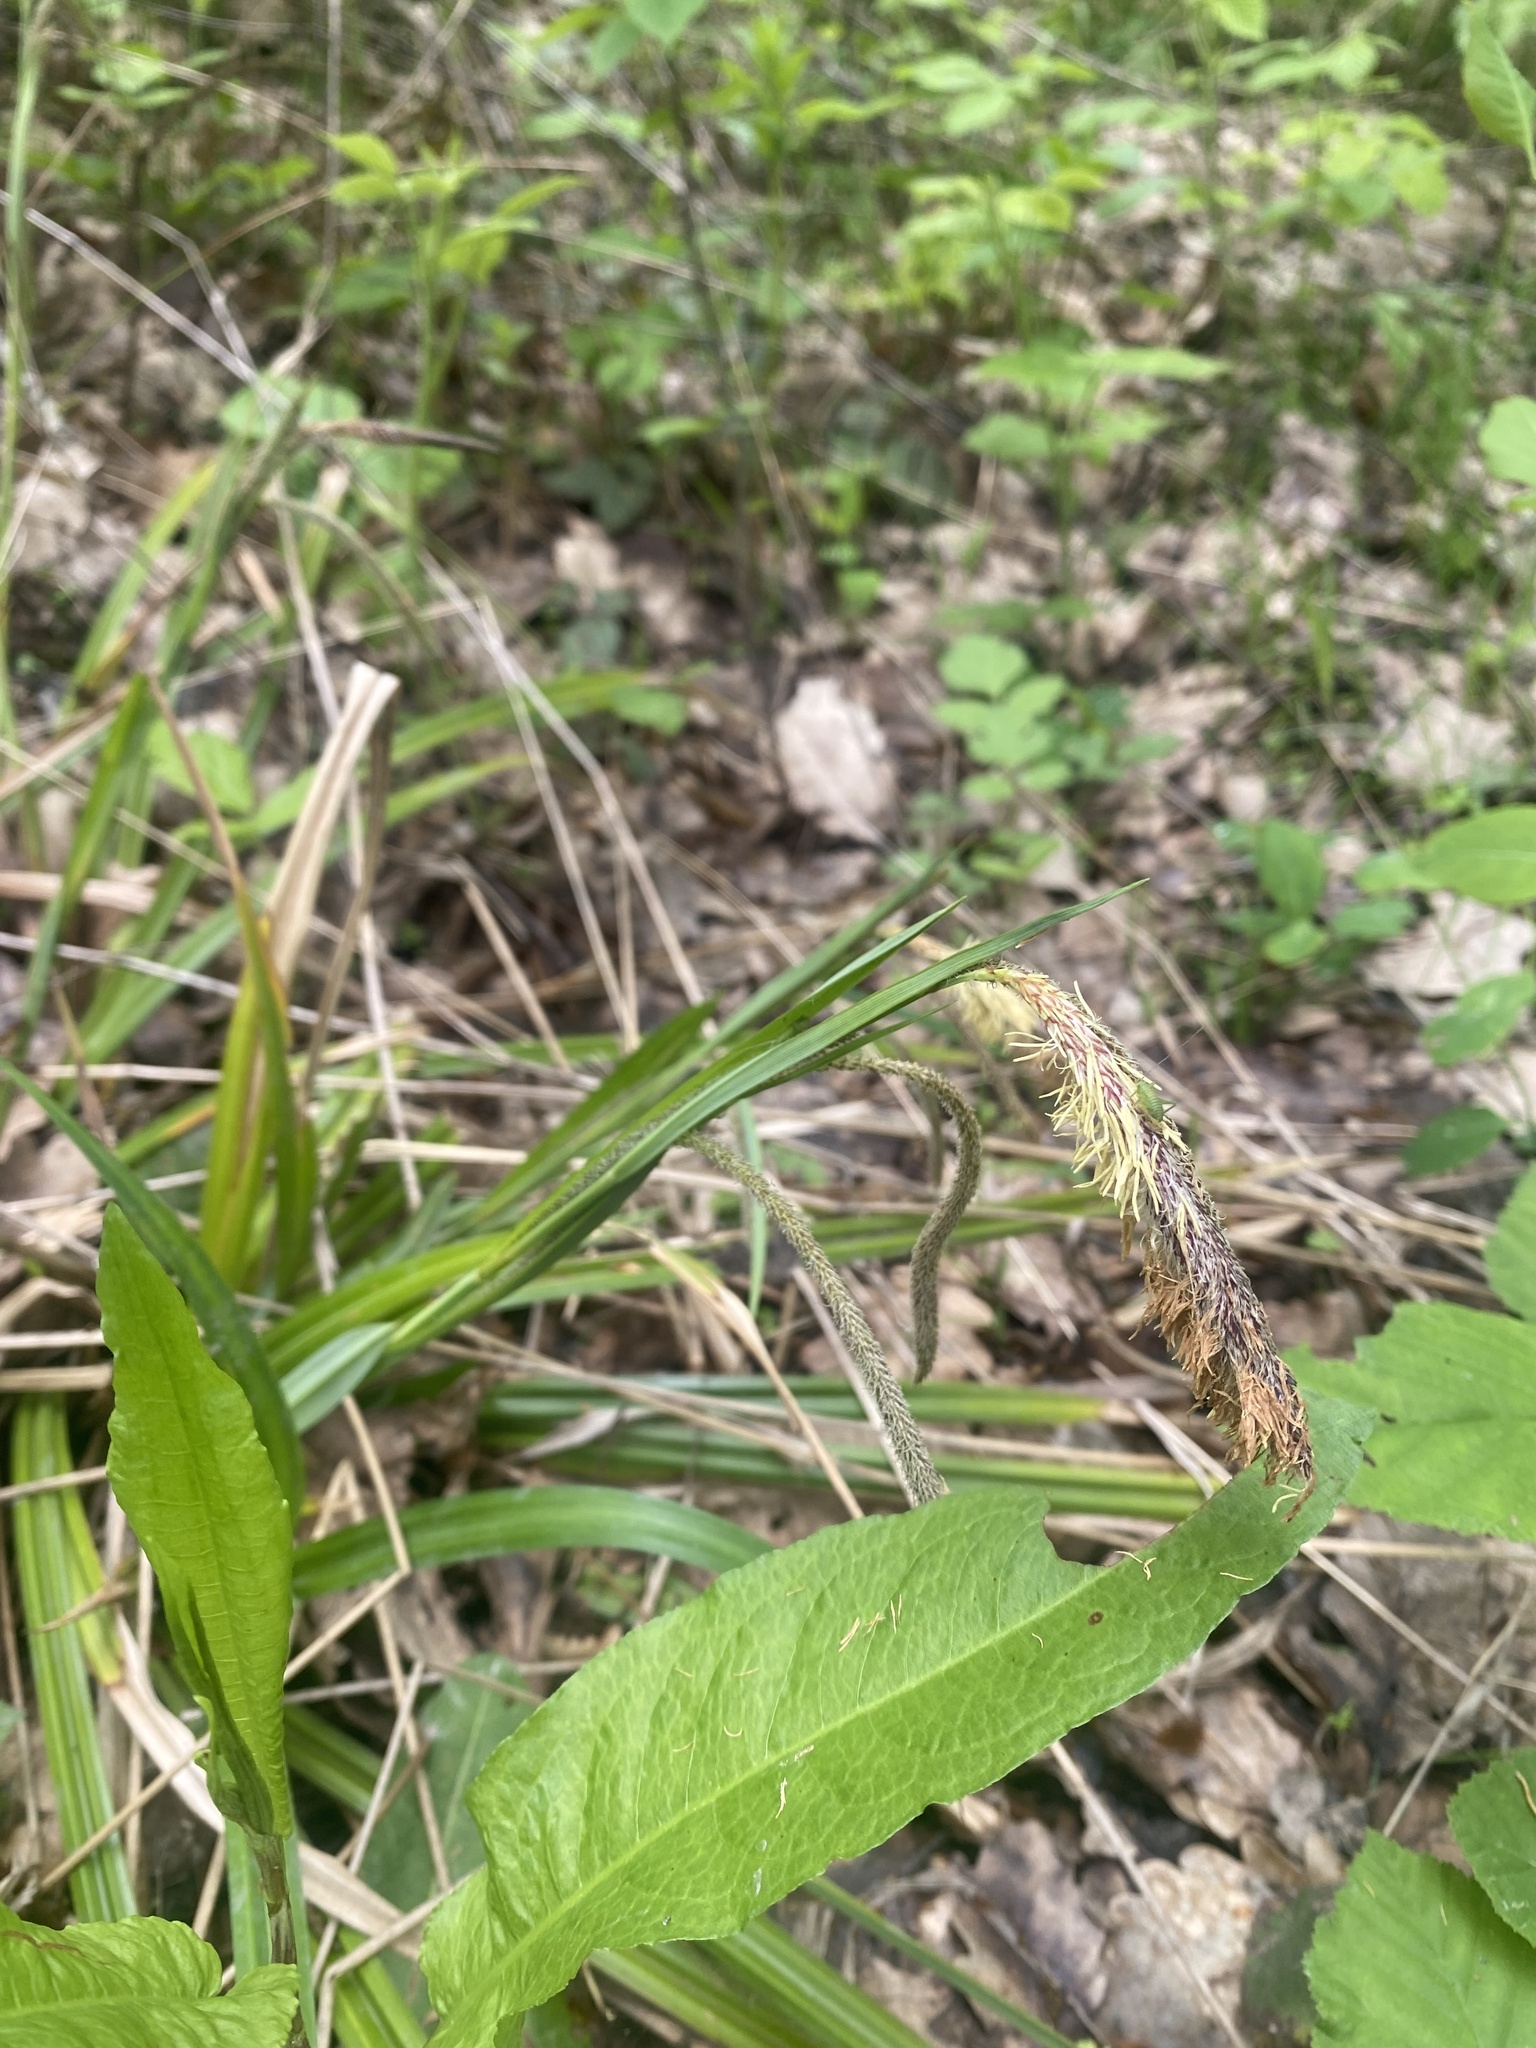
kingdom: Plantae
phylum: Tracheophyta
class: Liliopsida
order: Poales
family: Cyperaceae
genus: Carex
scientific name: Carex pendula
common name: Pendulous sedge
